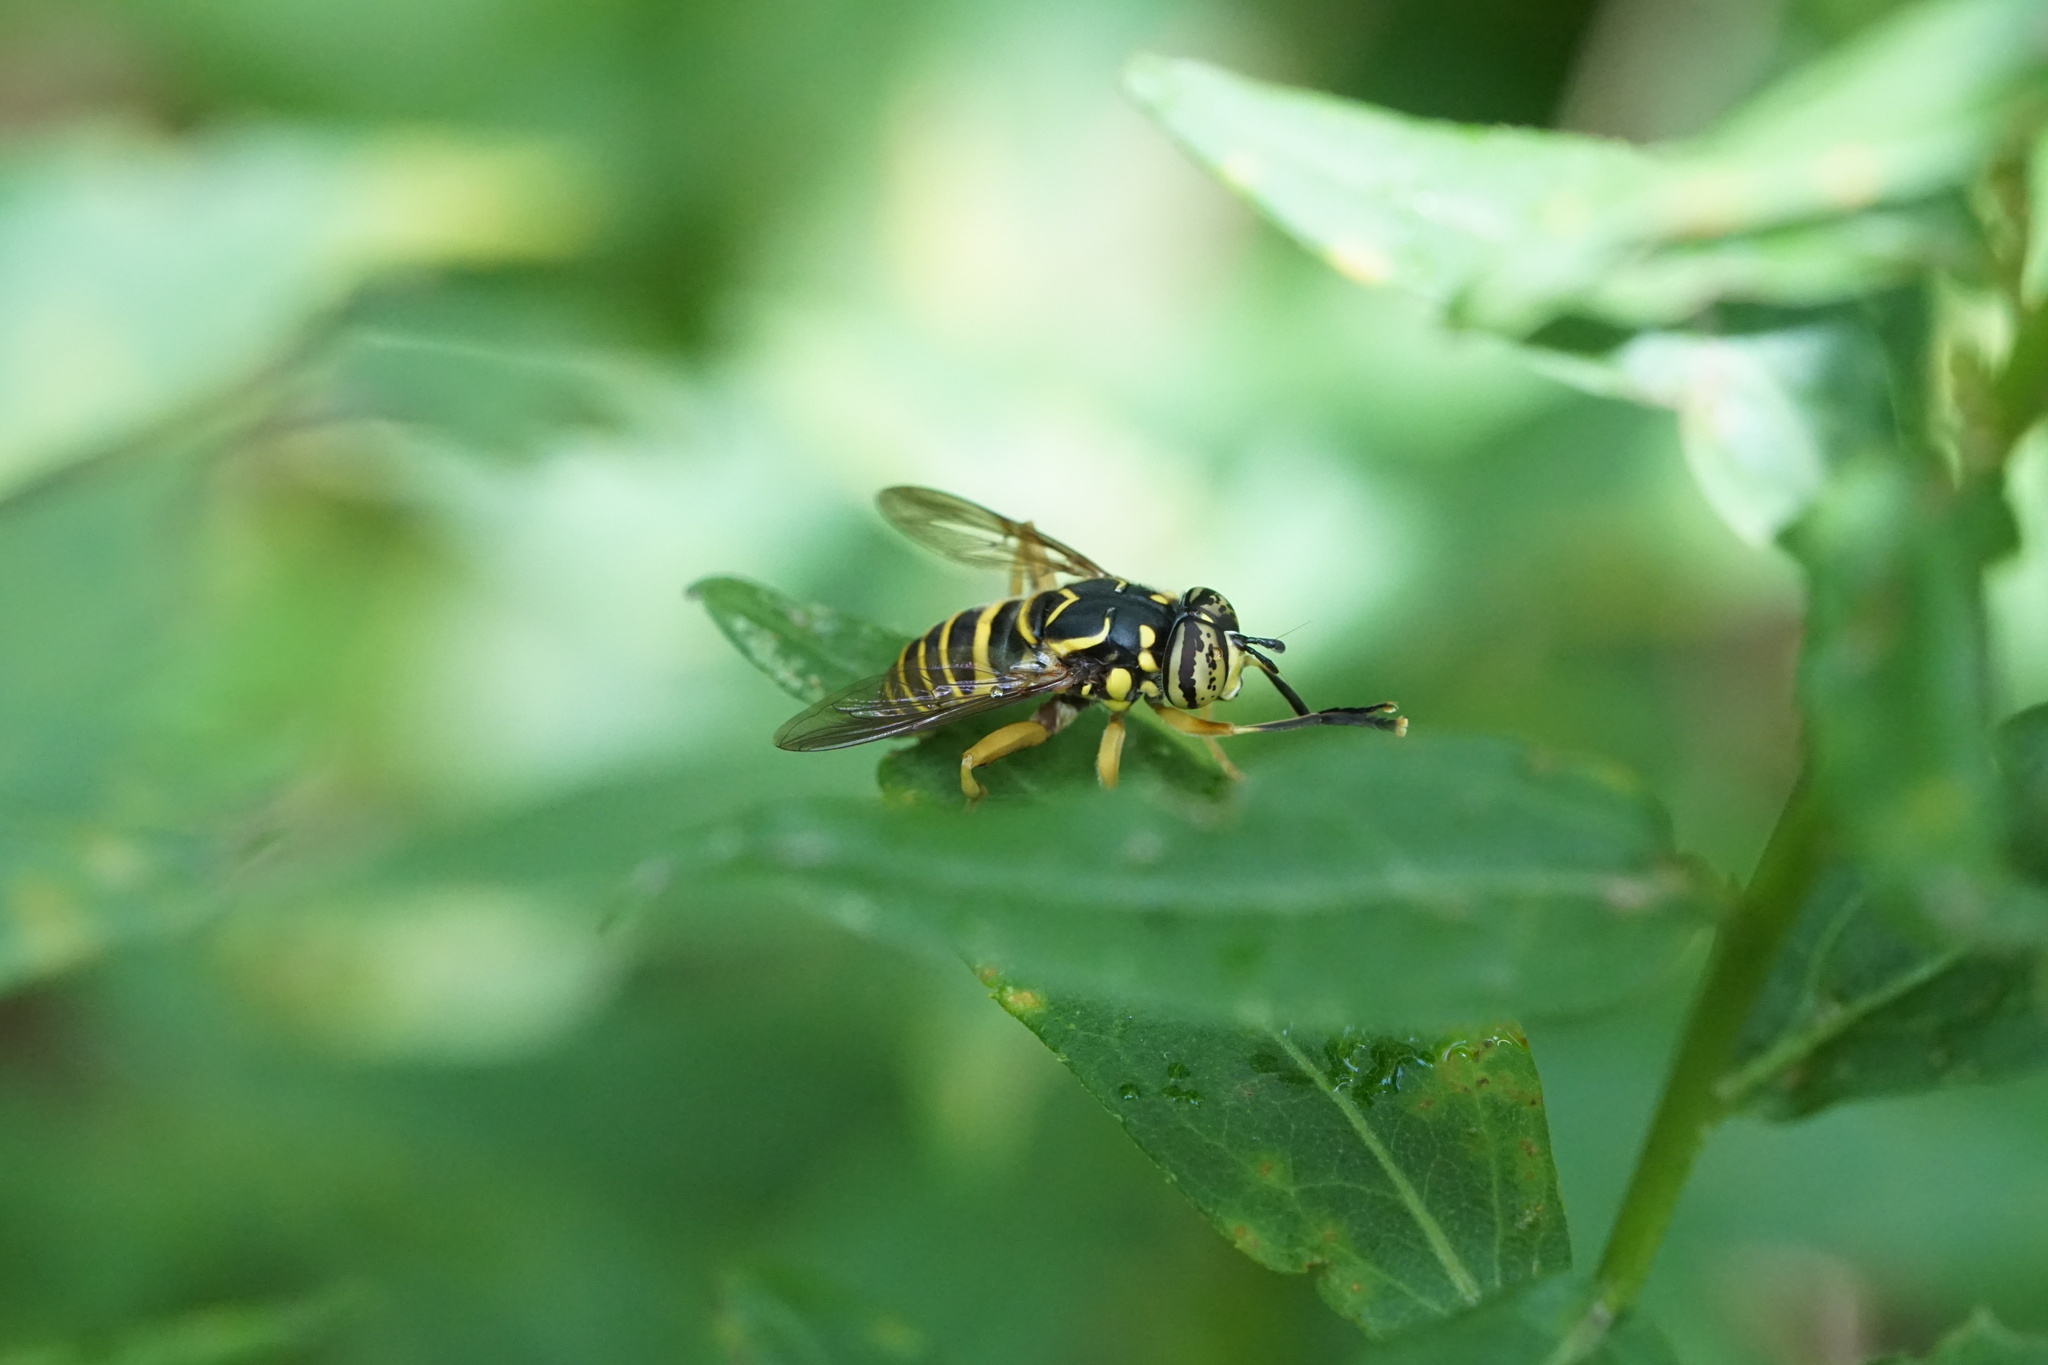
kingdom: Animalia
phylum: Arthropoda
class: Insecta
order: Diptera
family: Syrphidae
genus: Spilomyia
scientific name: Spilomyia longicornis
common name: Eastern hornet fly
